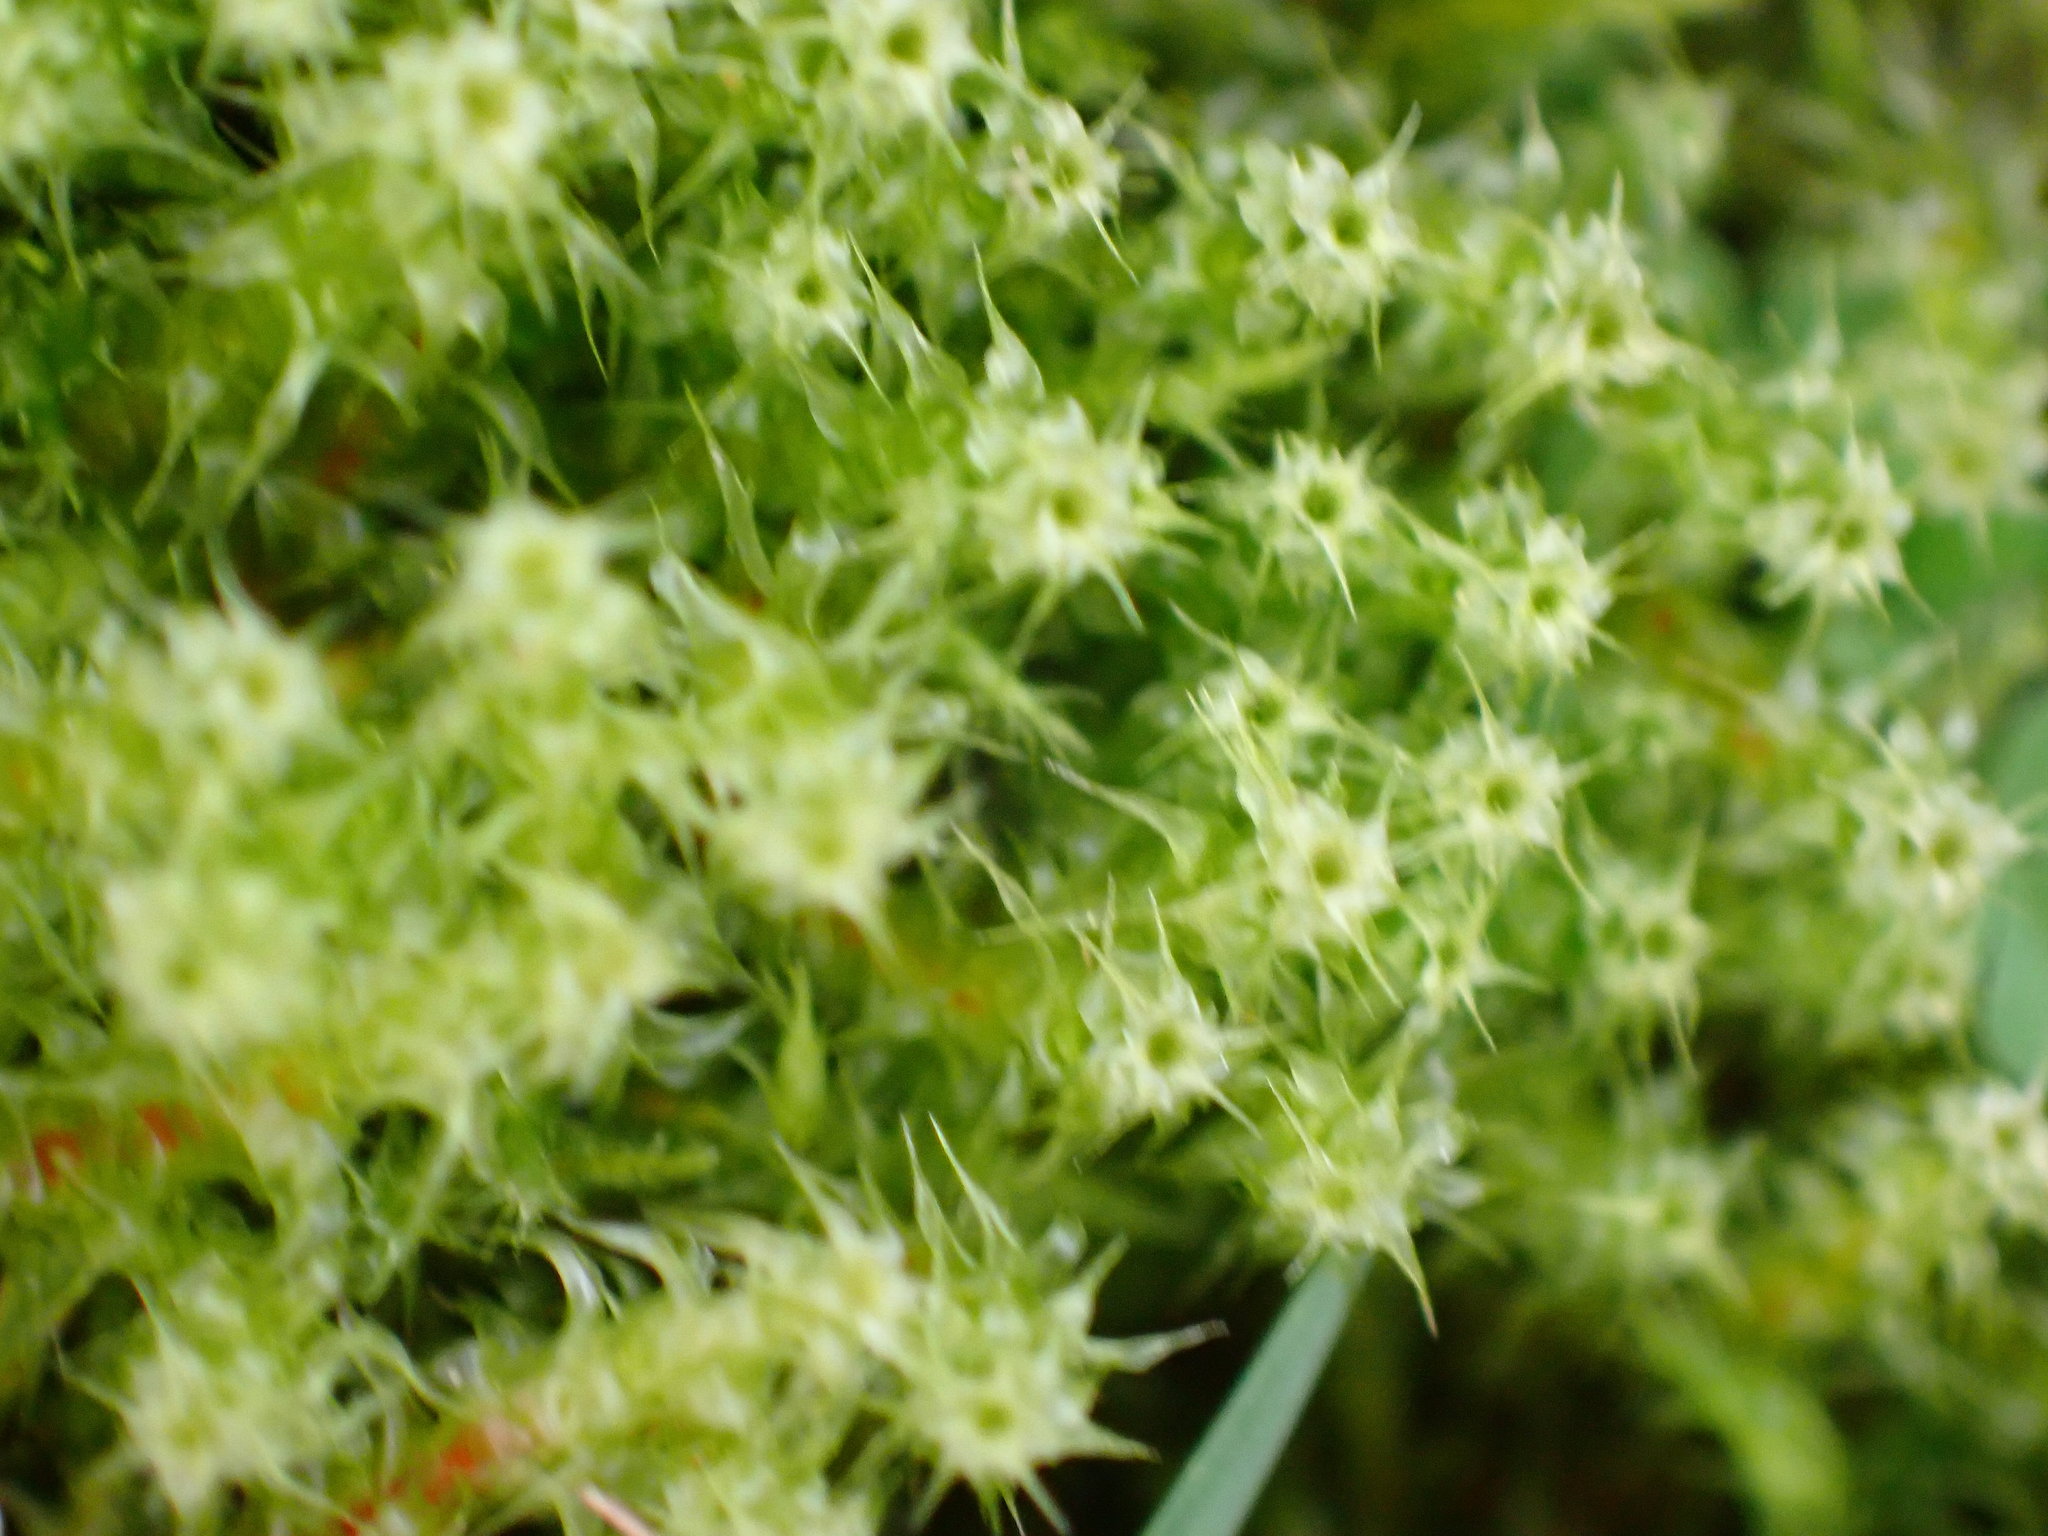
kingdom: Plantae
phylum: Bryophyta
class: Bryopsida
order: Hypnales
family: Hylocomiaceae
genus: Rhytidiadelphus
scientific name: Rhytidiadelphus squarrosus
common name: Springy turf-moss
